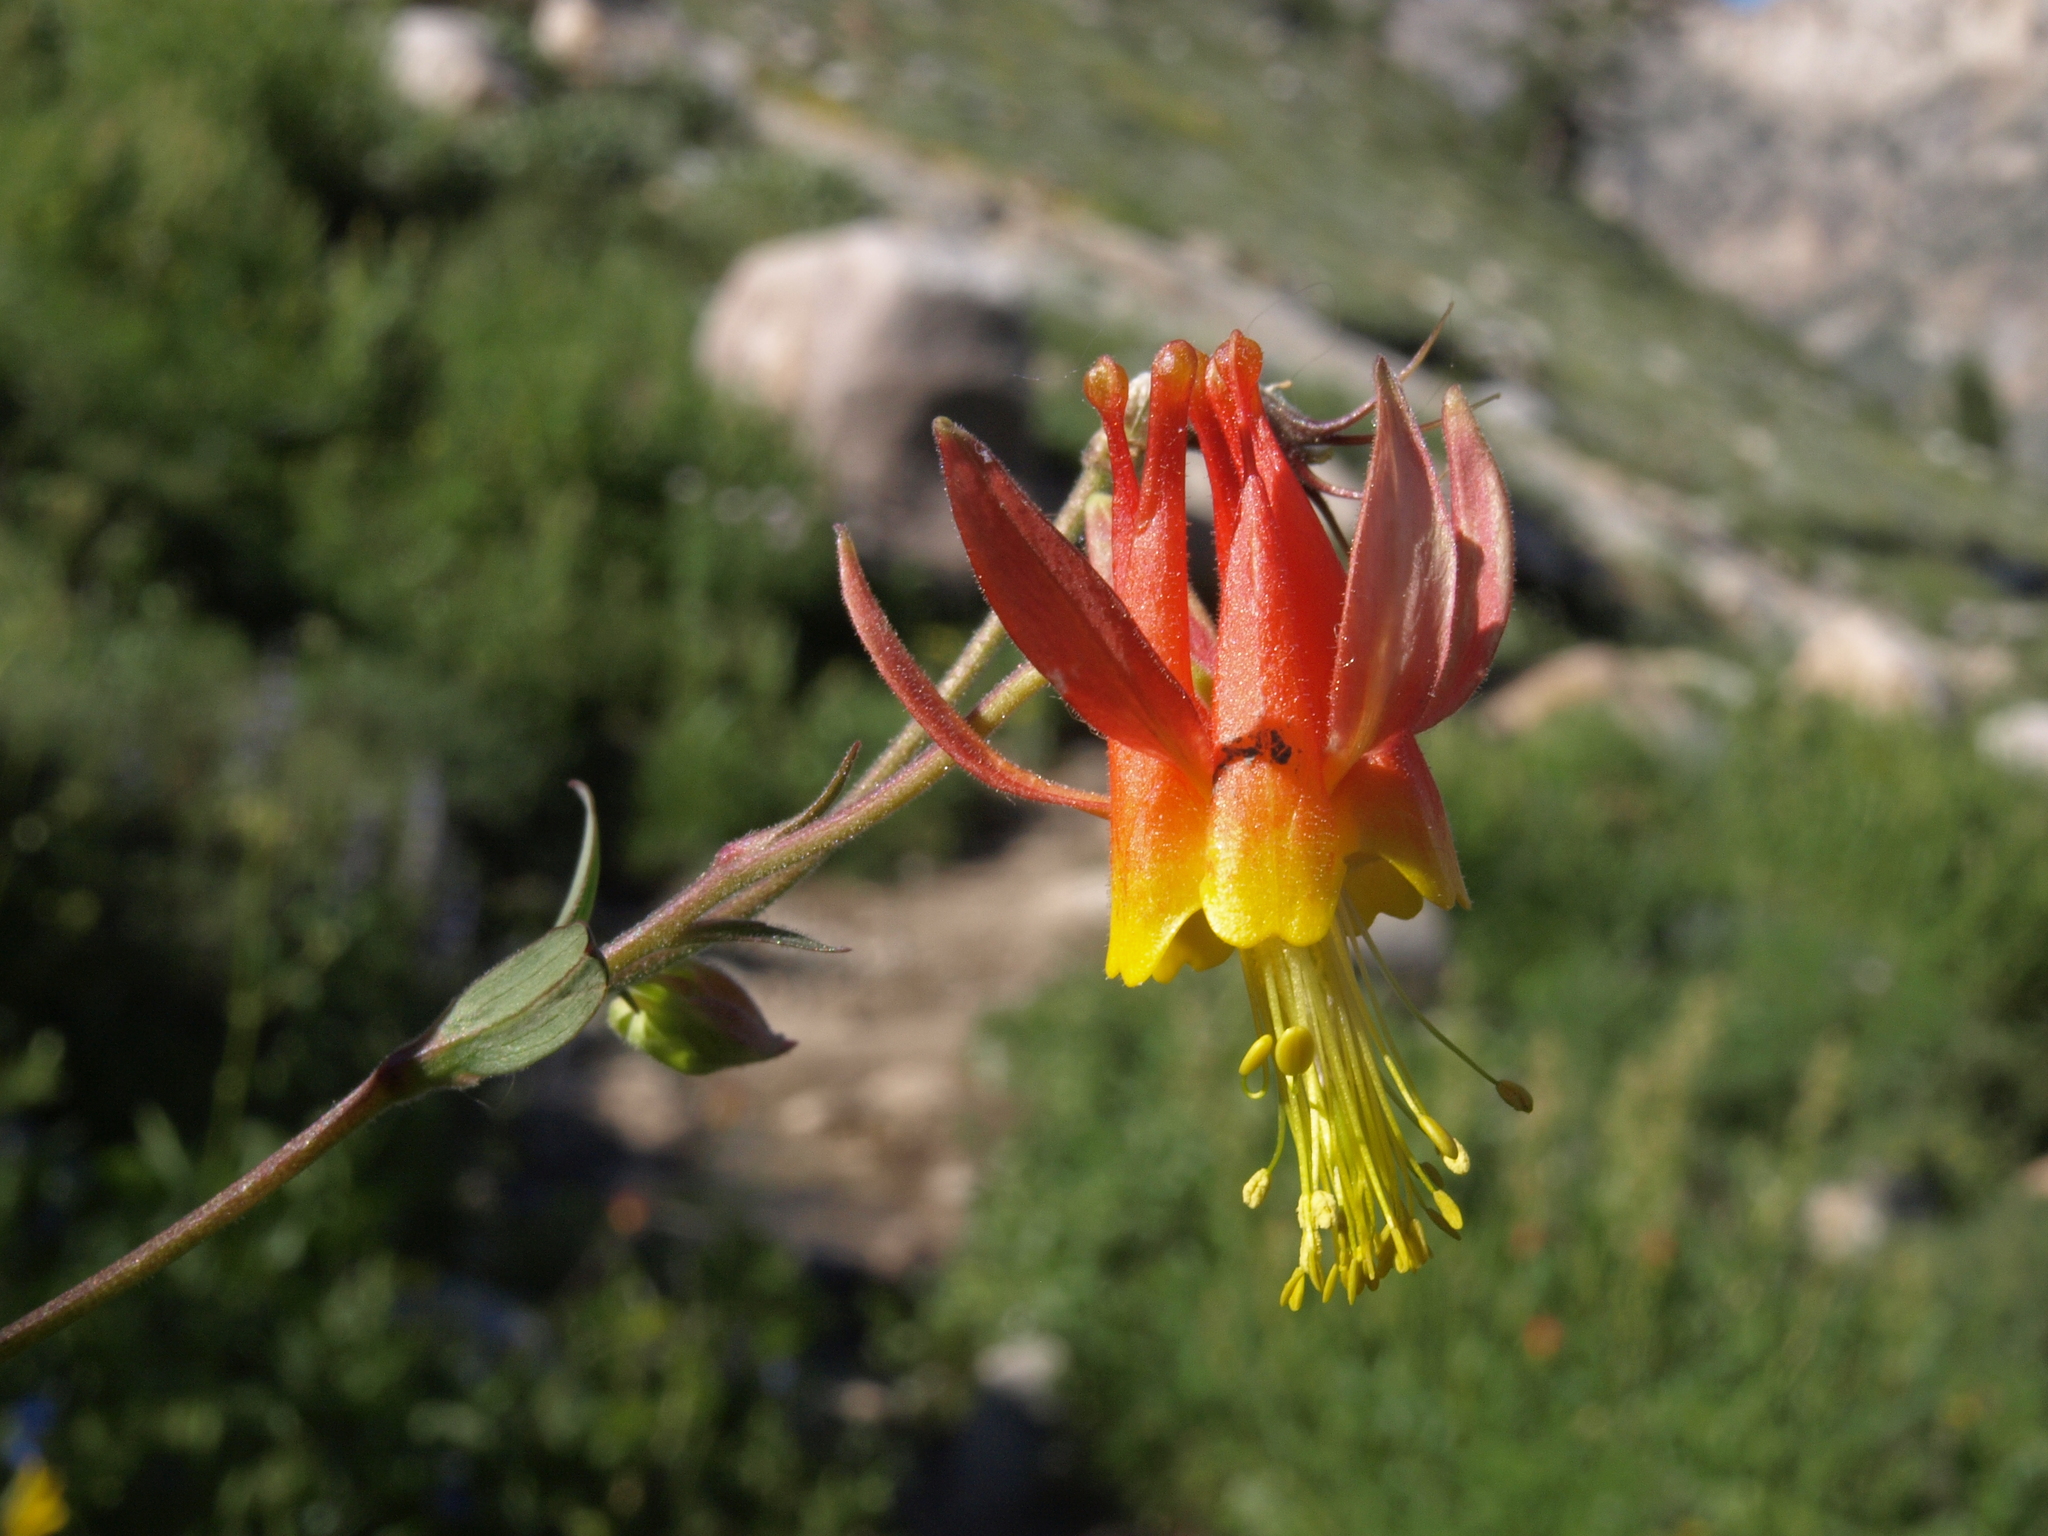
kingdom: Plantae
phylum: Tracheophyta
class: Magnoliopsida
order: Ranunculales
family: Ranunculaceae
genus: Aquilegia
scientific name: Aquilegia formosa
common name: Sitka columbine
